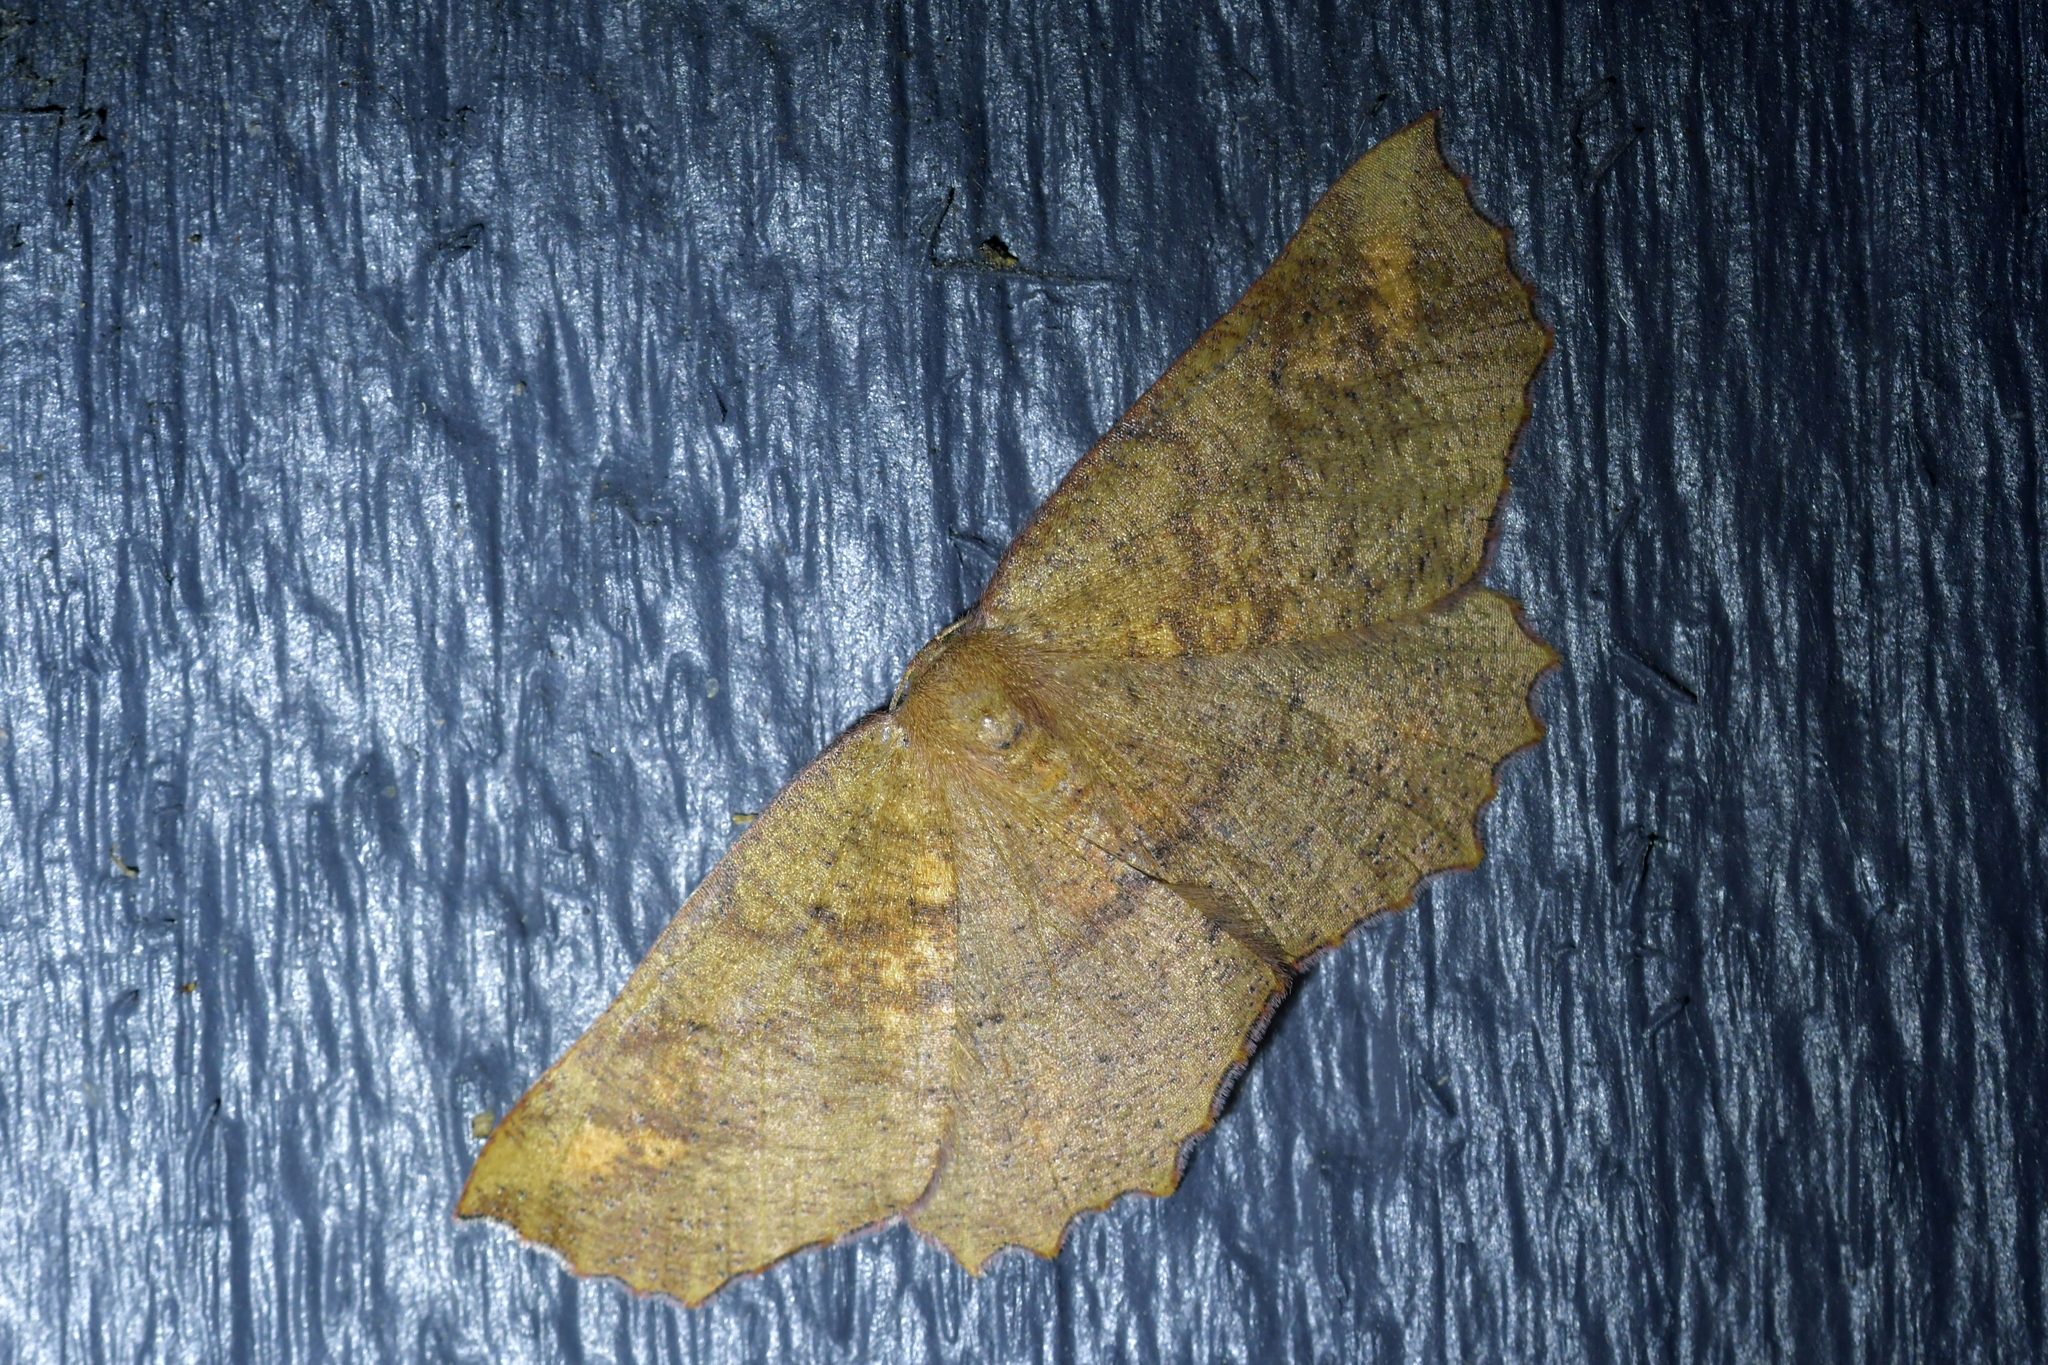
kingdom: Animalia
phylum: Arthropoda
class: Insecta
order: Lepidoptera
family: Geometridae
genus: Xyridacma
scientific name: Xyridacma ustaria
